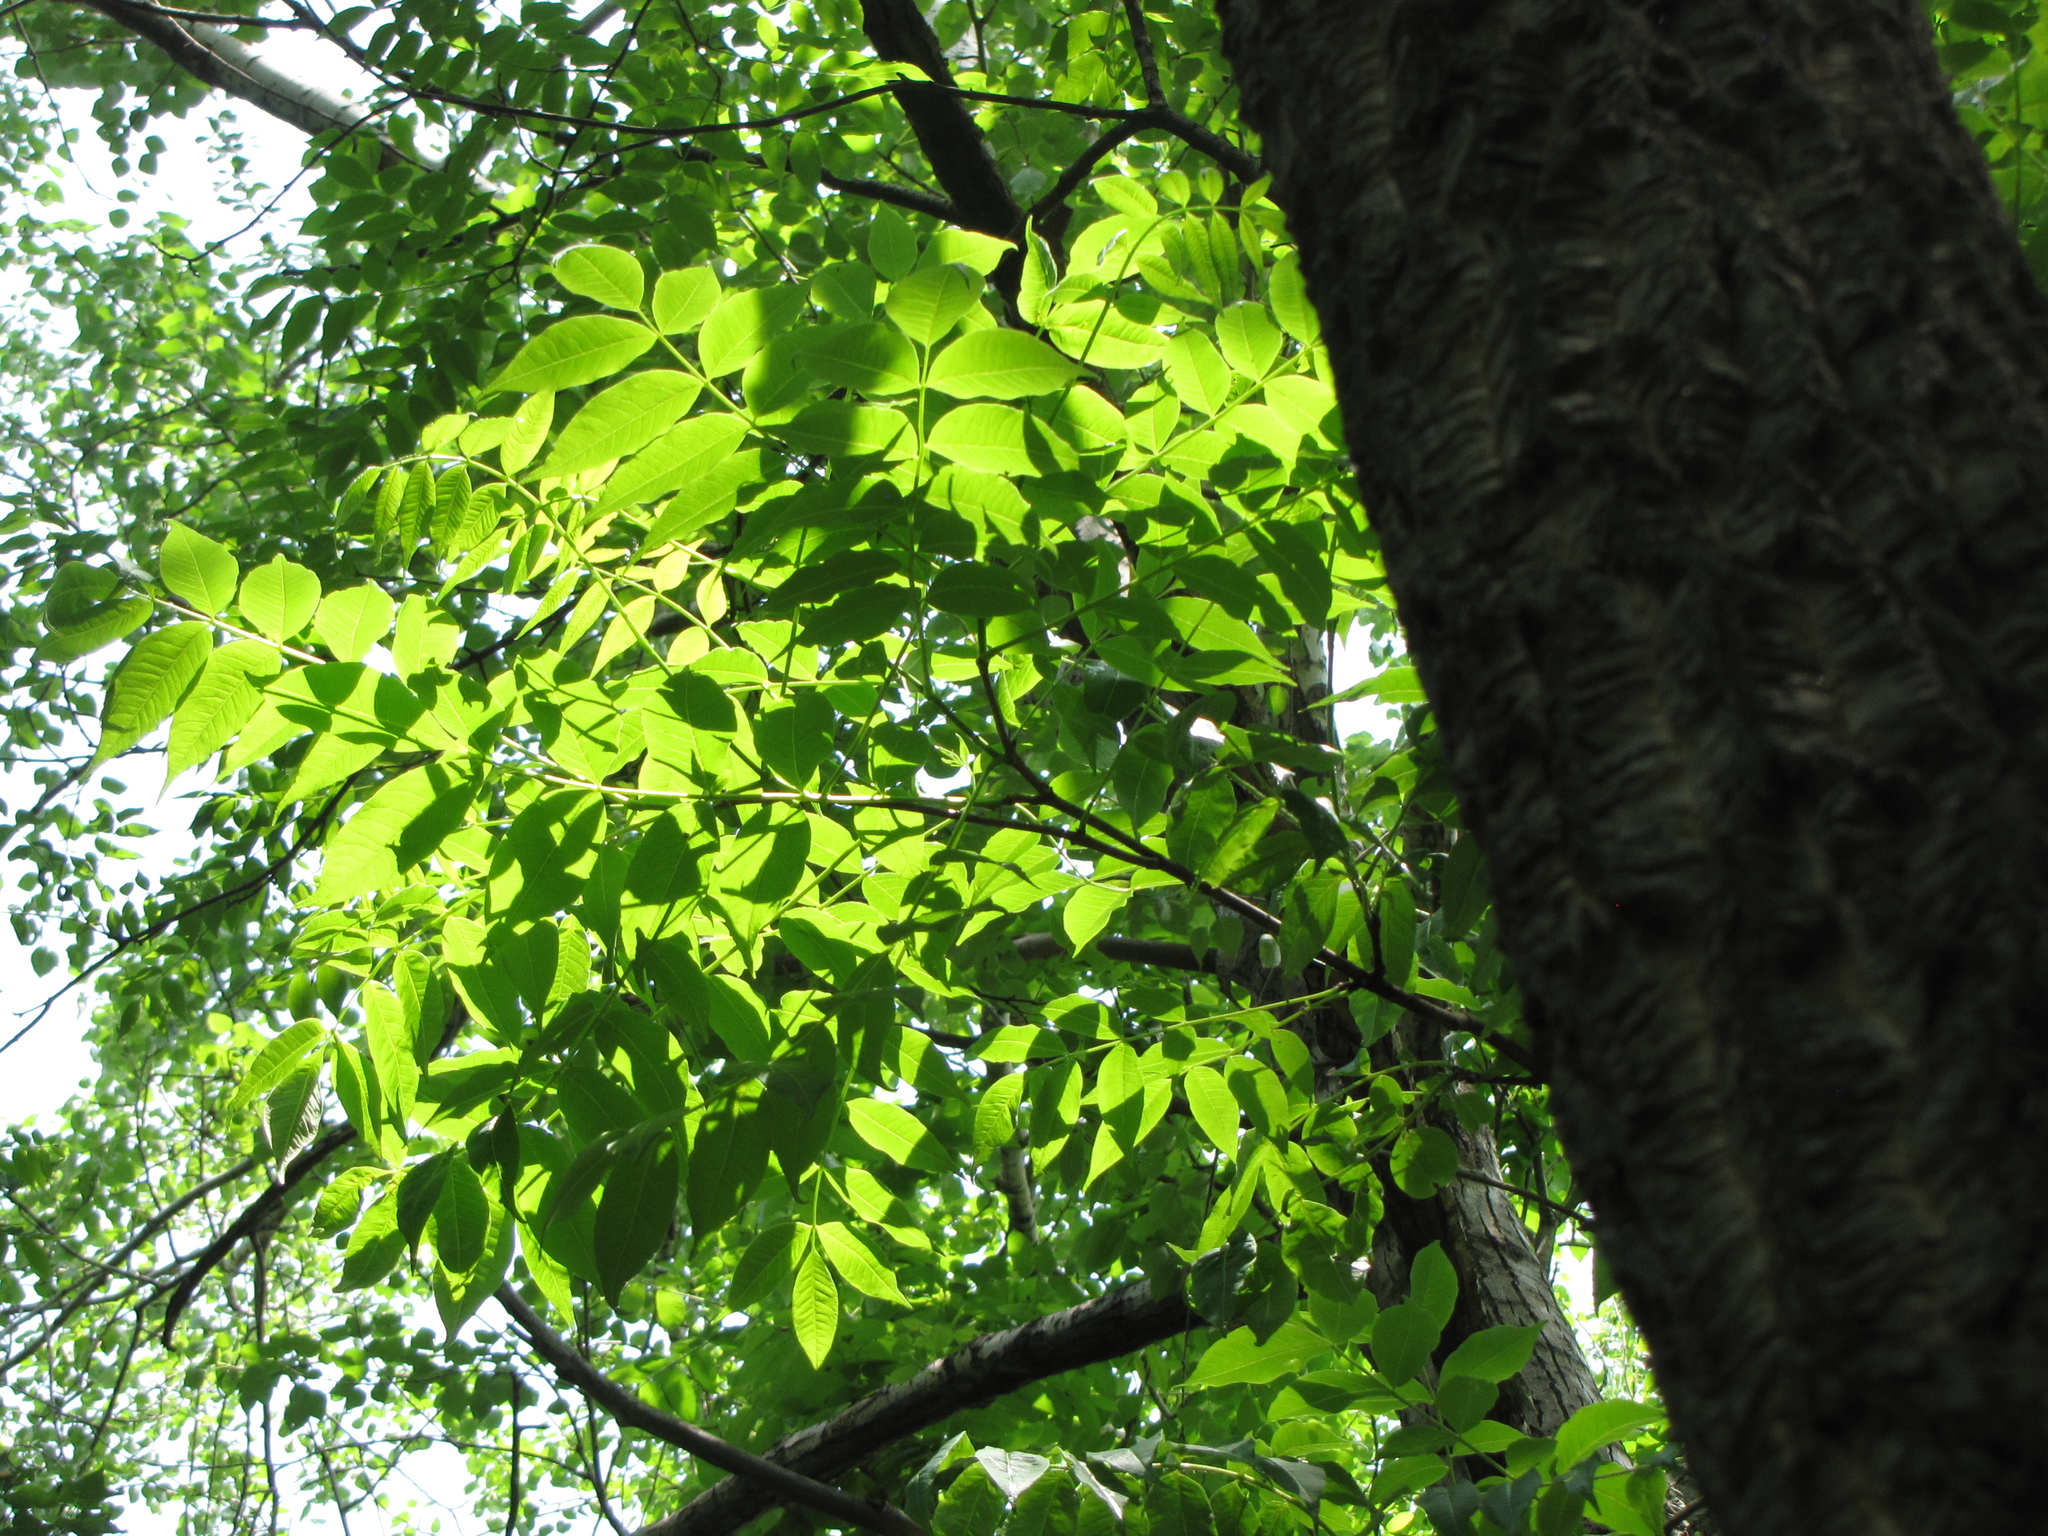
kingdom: Plantae
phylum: Tracheophyta
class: Magnoliopsida
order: Sapindales
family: Rutaceae
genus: Phellodendron
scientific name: Phellodendron amurense
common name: Amur corktree
